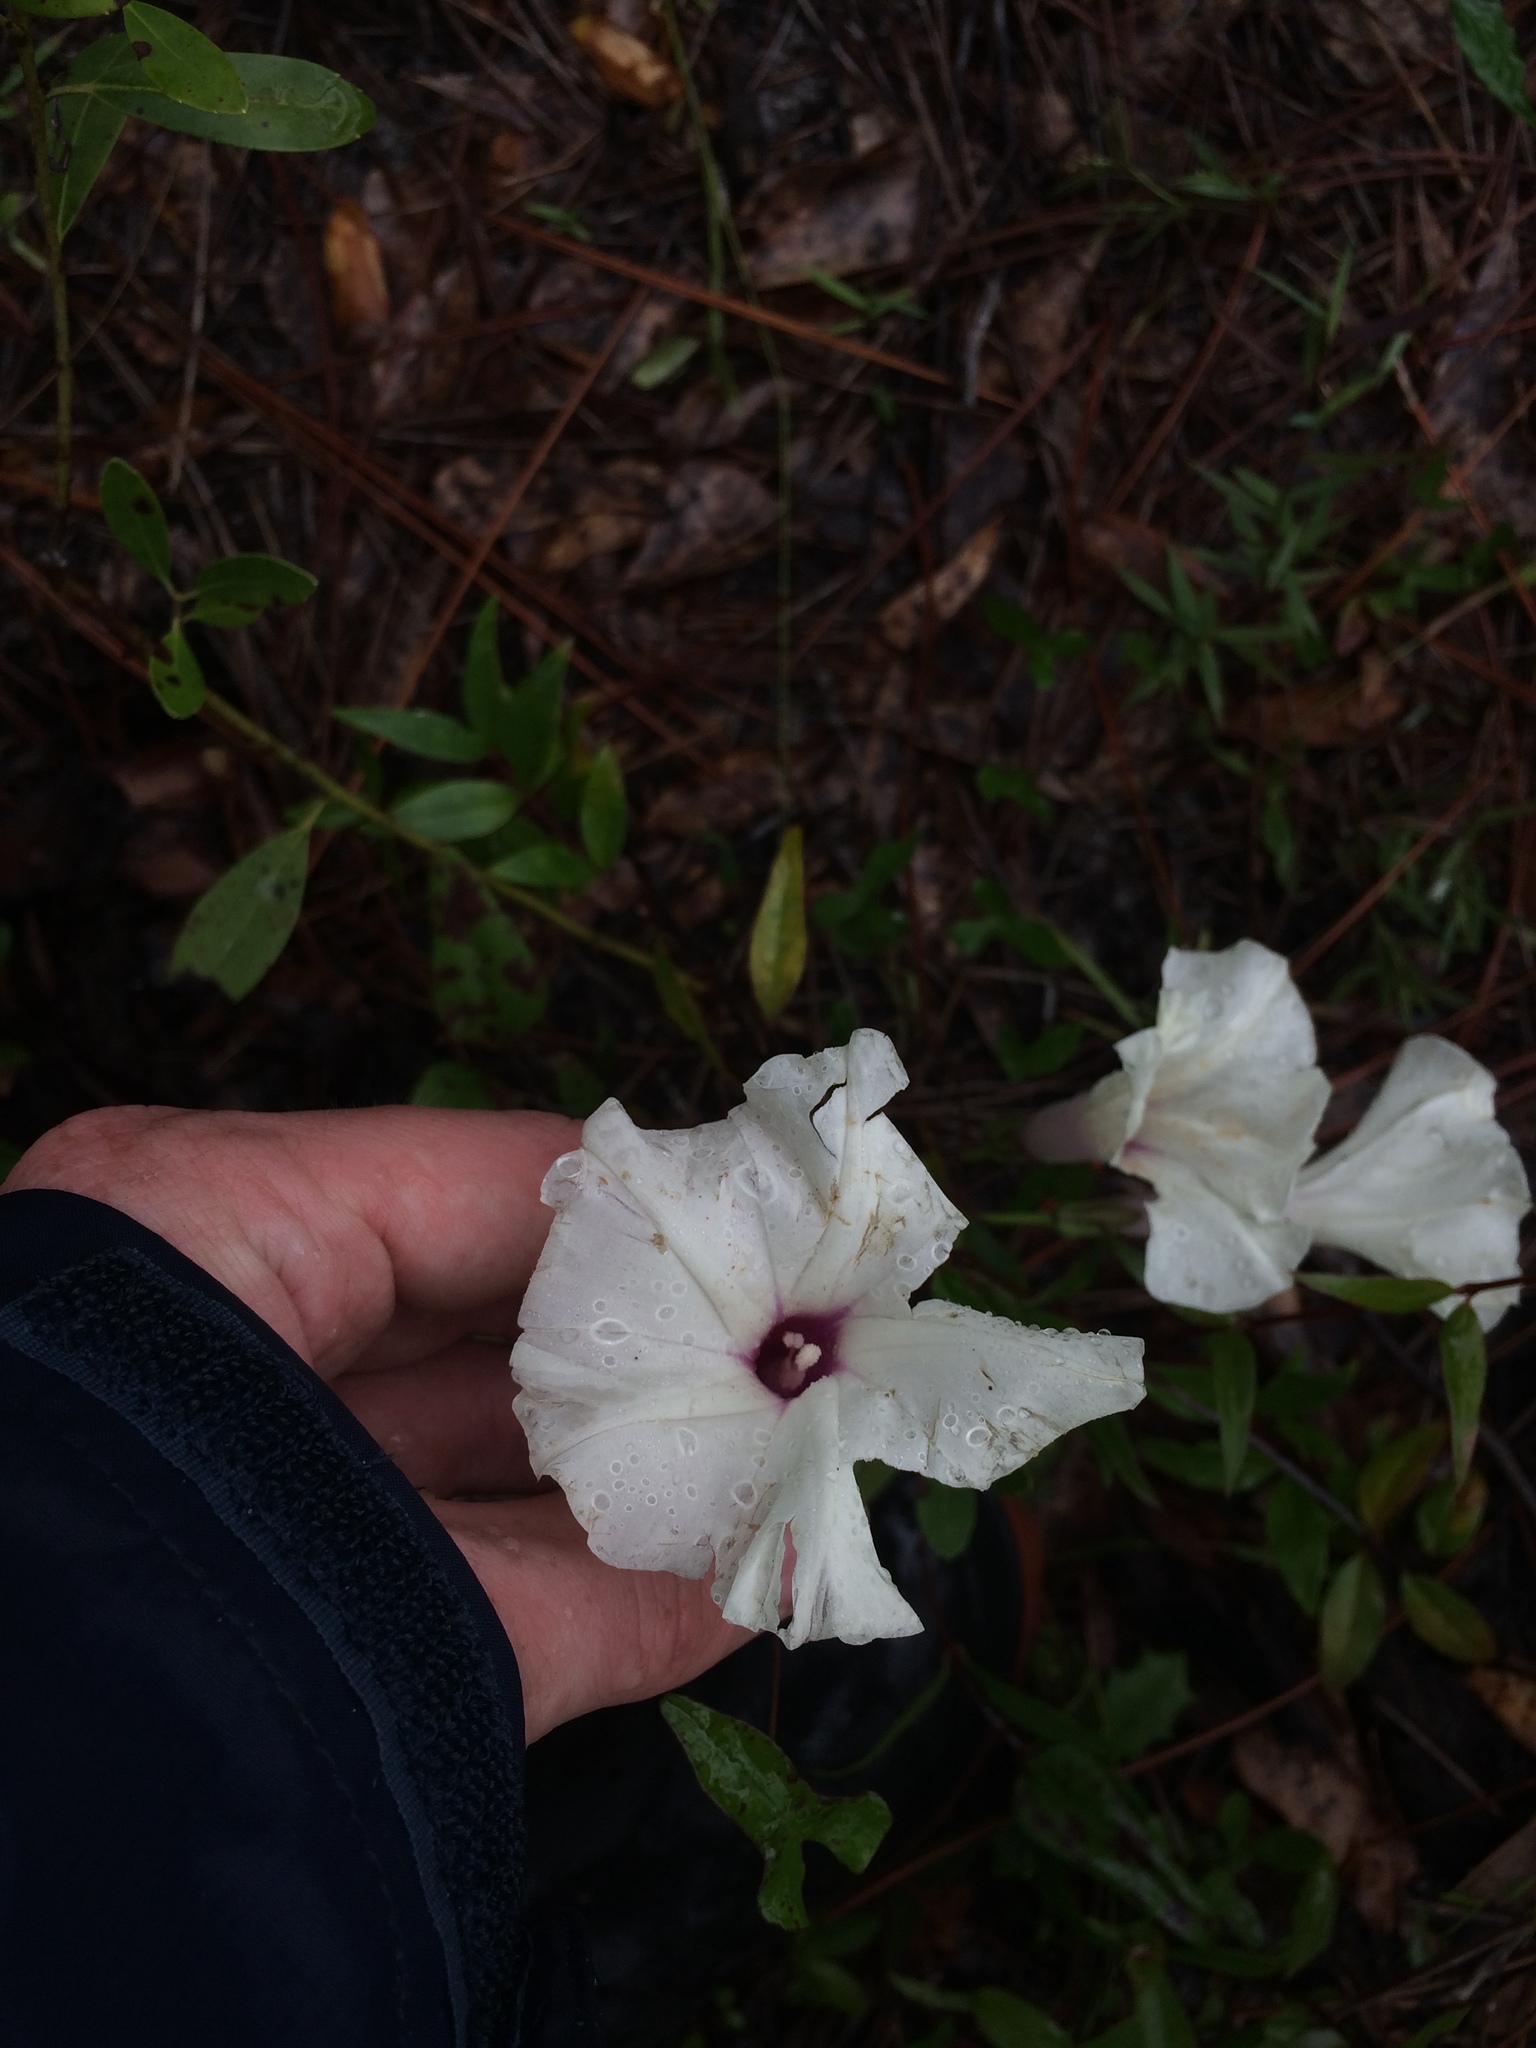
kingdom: Plantae
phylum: Tracheophyta
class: Magnoliopsida
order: Solanales
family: Convolvulaceae
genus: Ipomoea
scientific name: Ipomoea pandurata
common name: Man-of-the-earth
